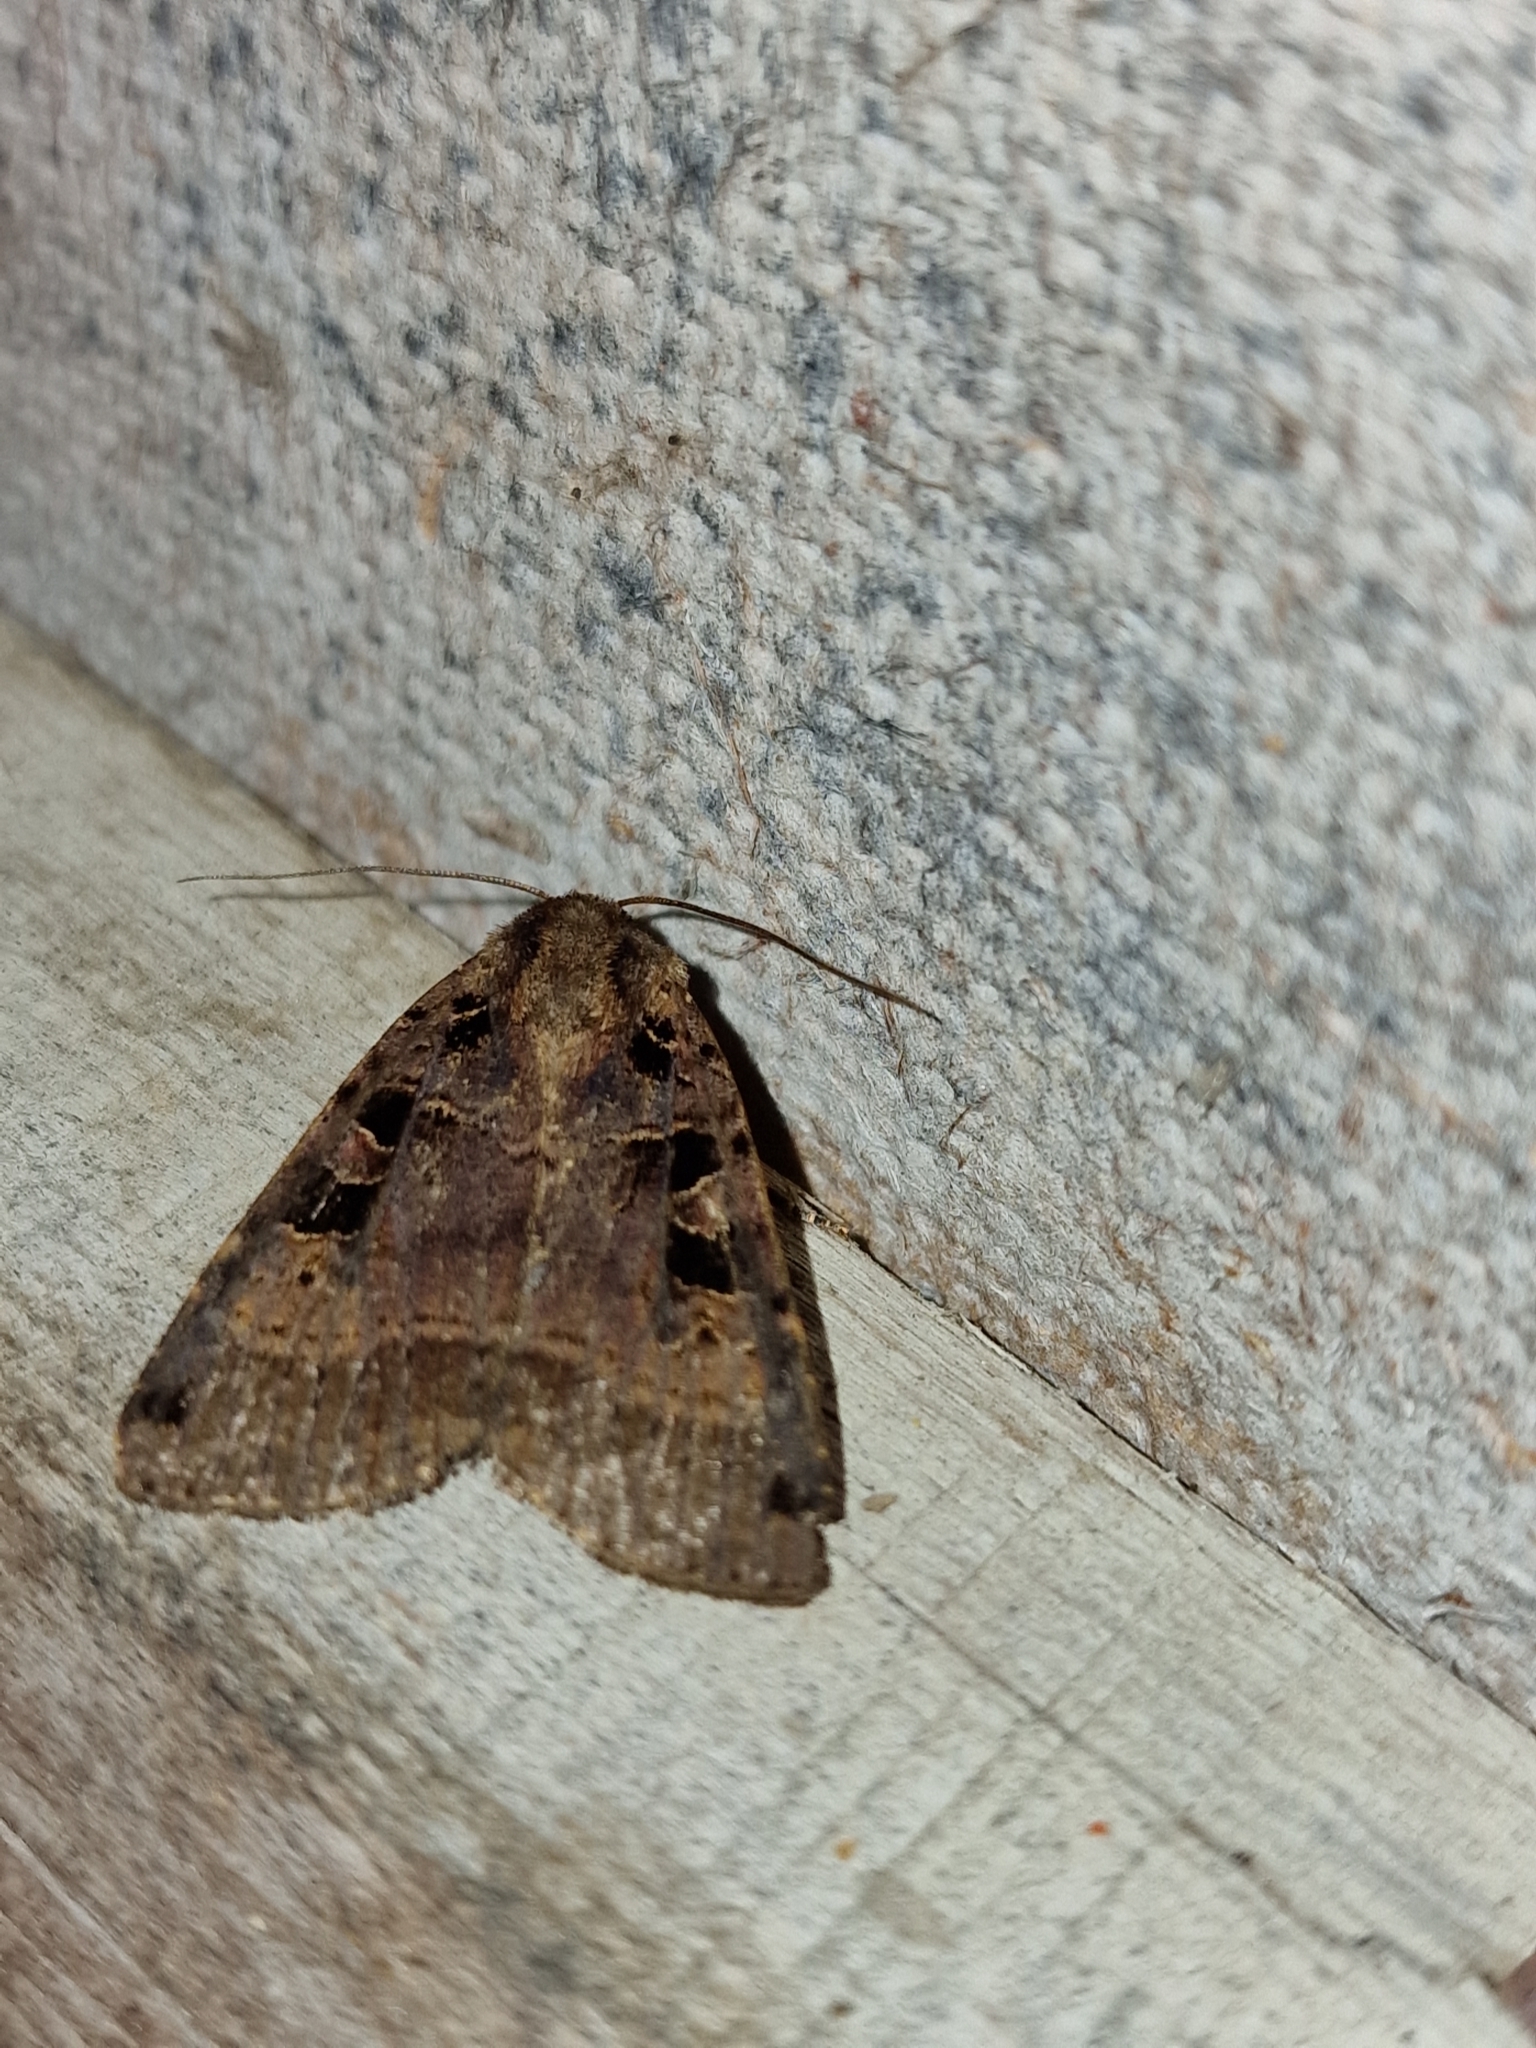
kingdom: Animalia
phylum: Arthropoda
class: Insecta
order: Lepidoptera
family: Noctuidae
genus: Xestia
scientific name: Xestia ditrapezium
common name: Triple-spotted clay
